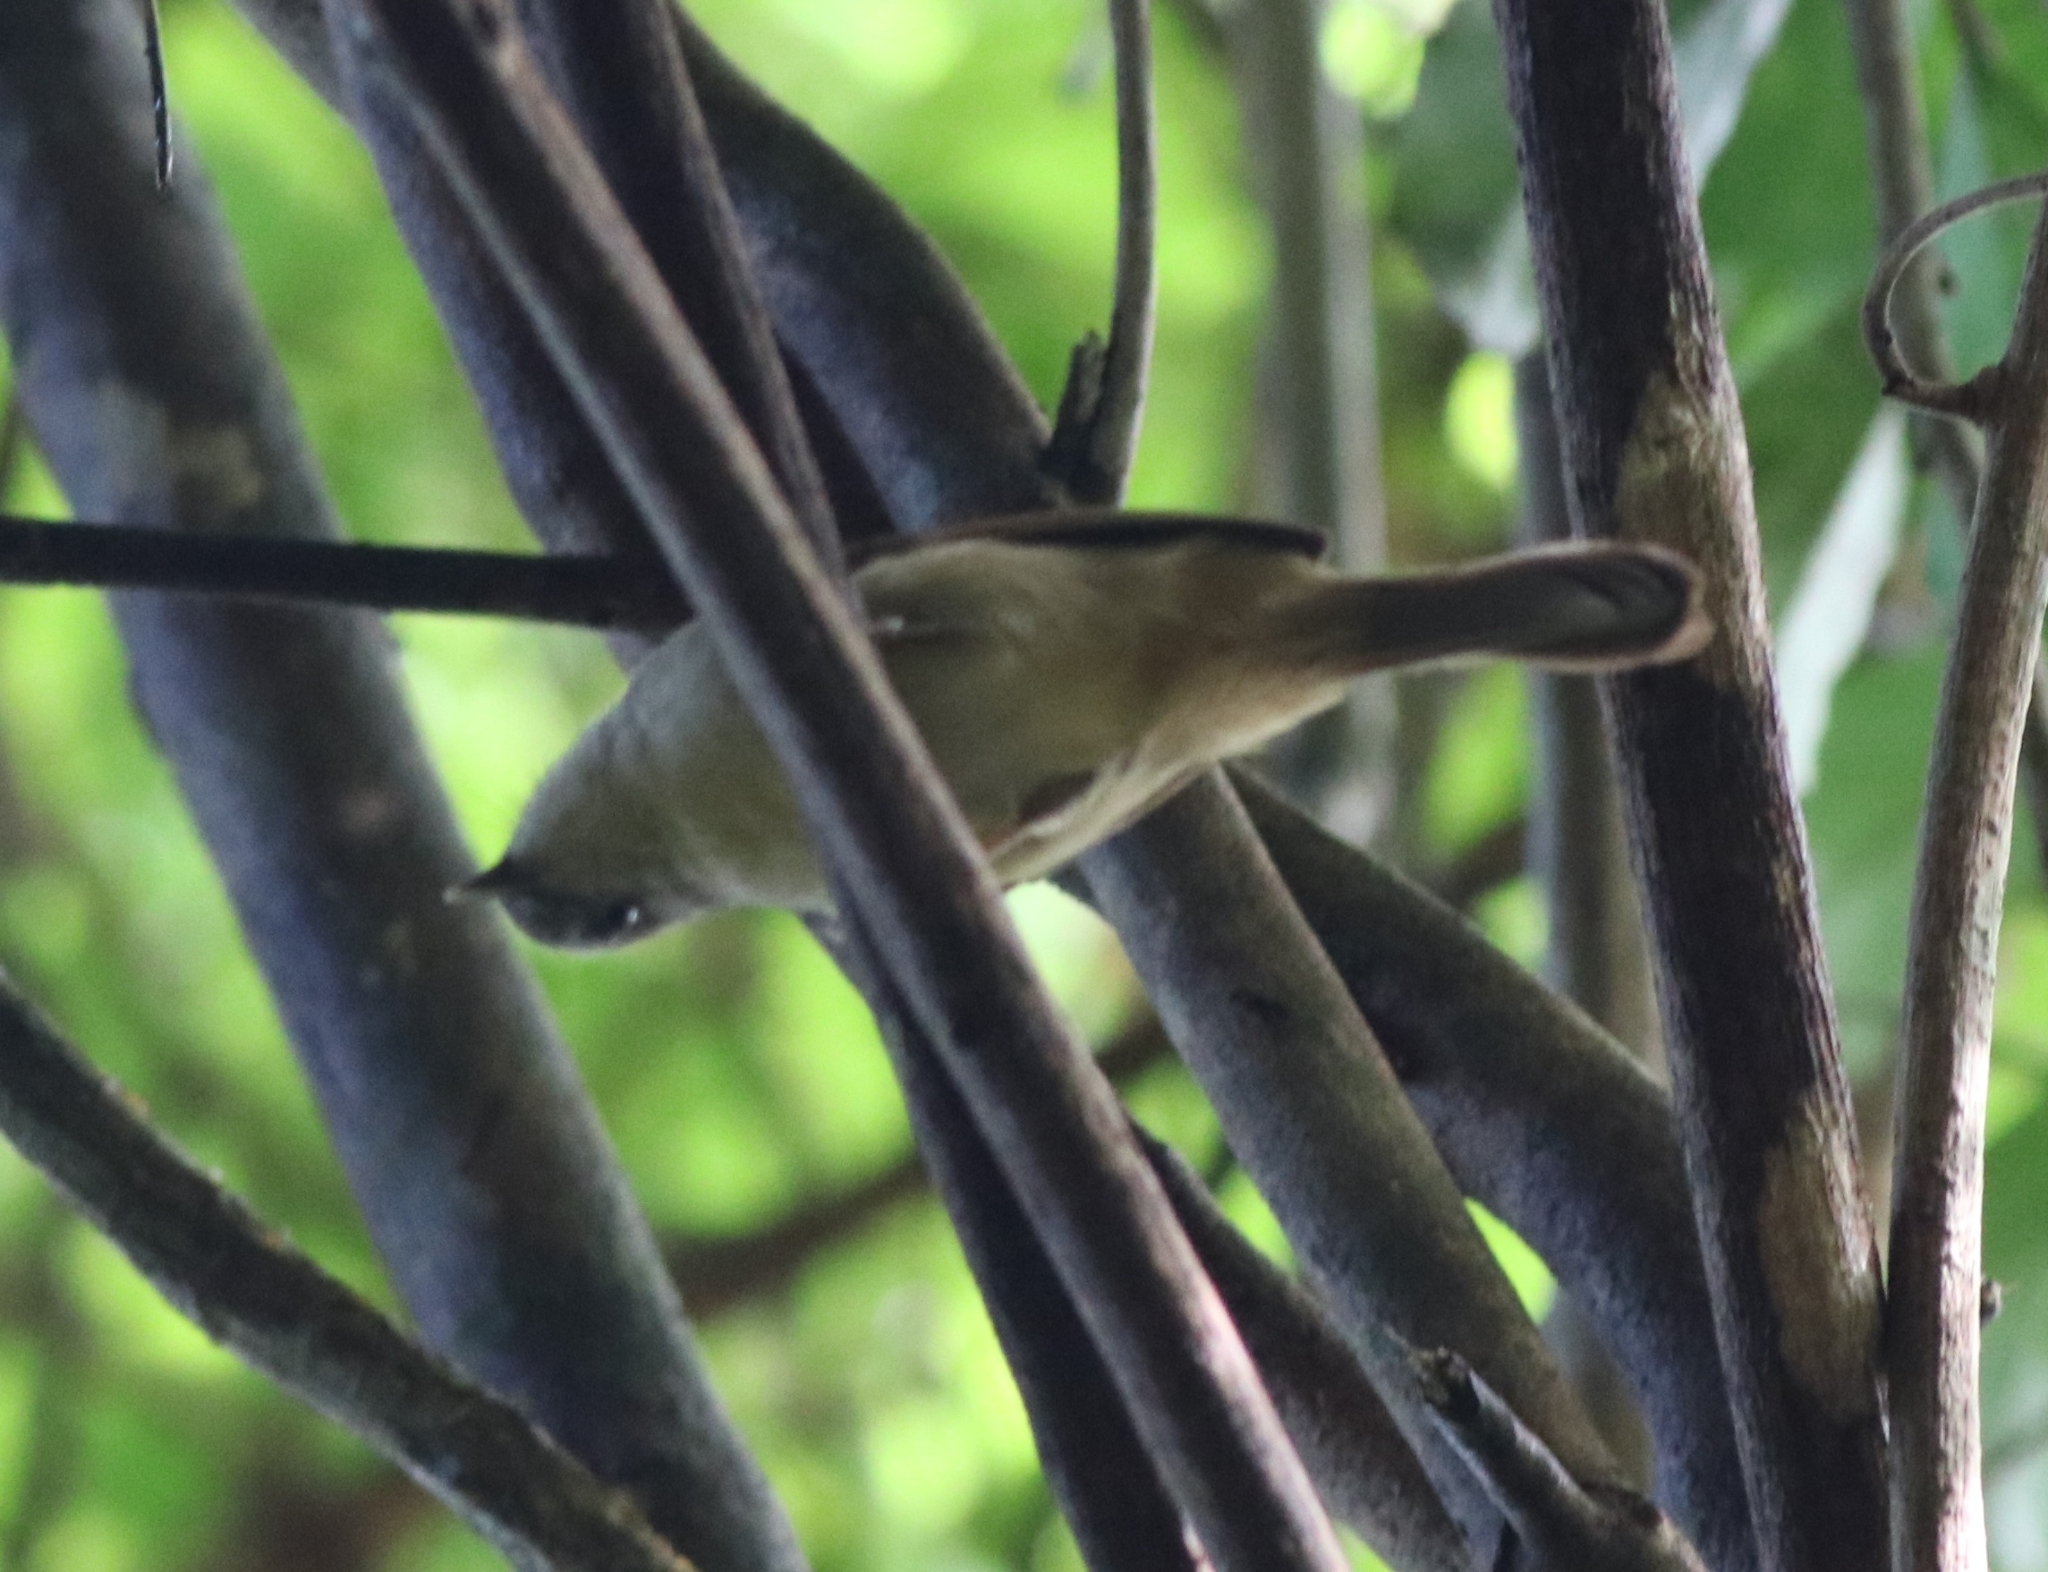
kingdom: Animalia
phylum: Chordata
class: Aves
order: Passeriformes
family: Pellorneidae
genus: Alcippe
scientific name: Alcippe poioicephala
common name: Brown-cheeked fulvetta
